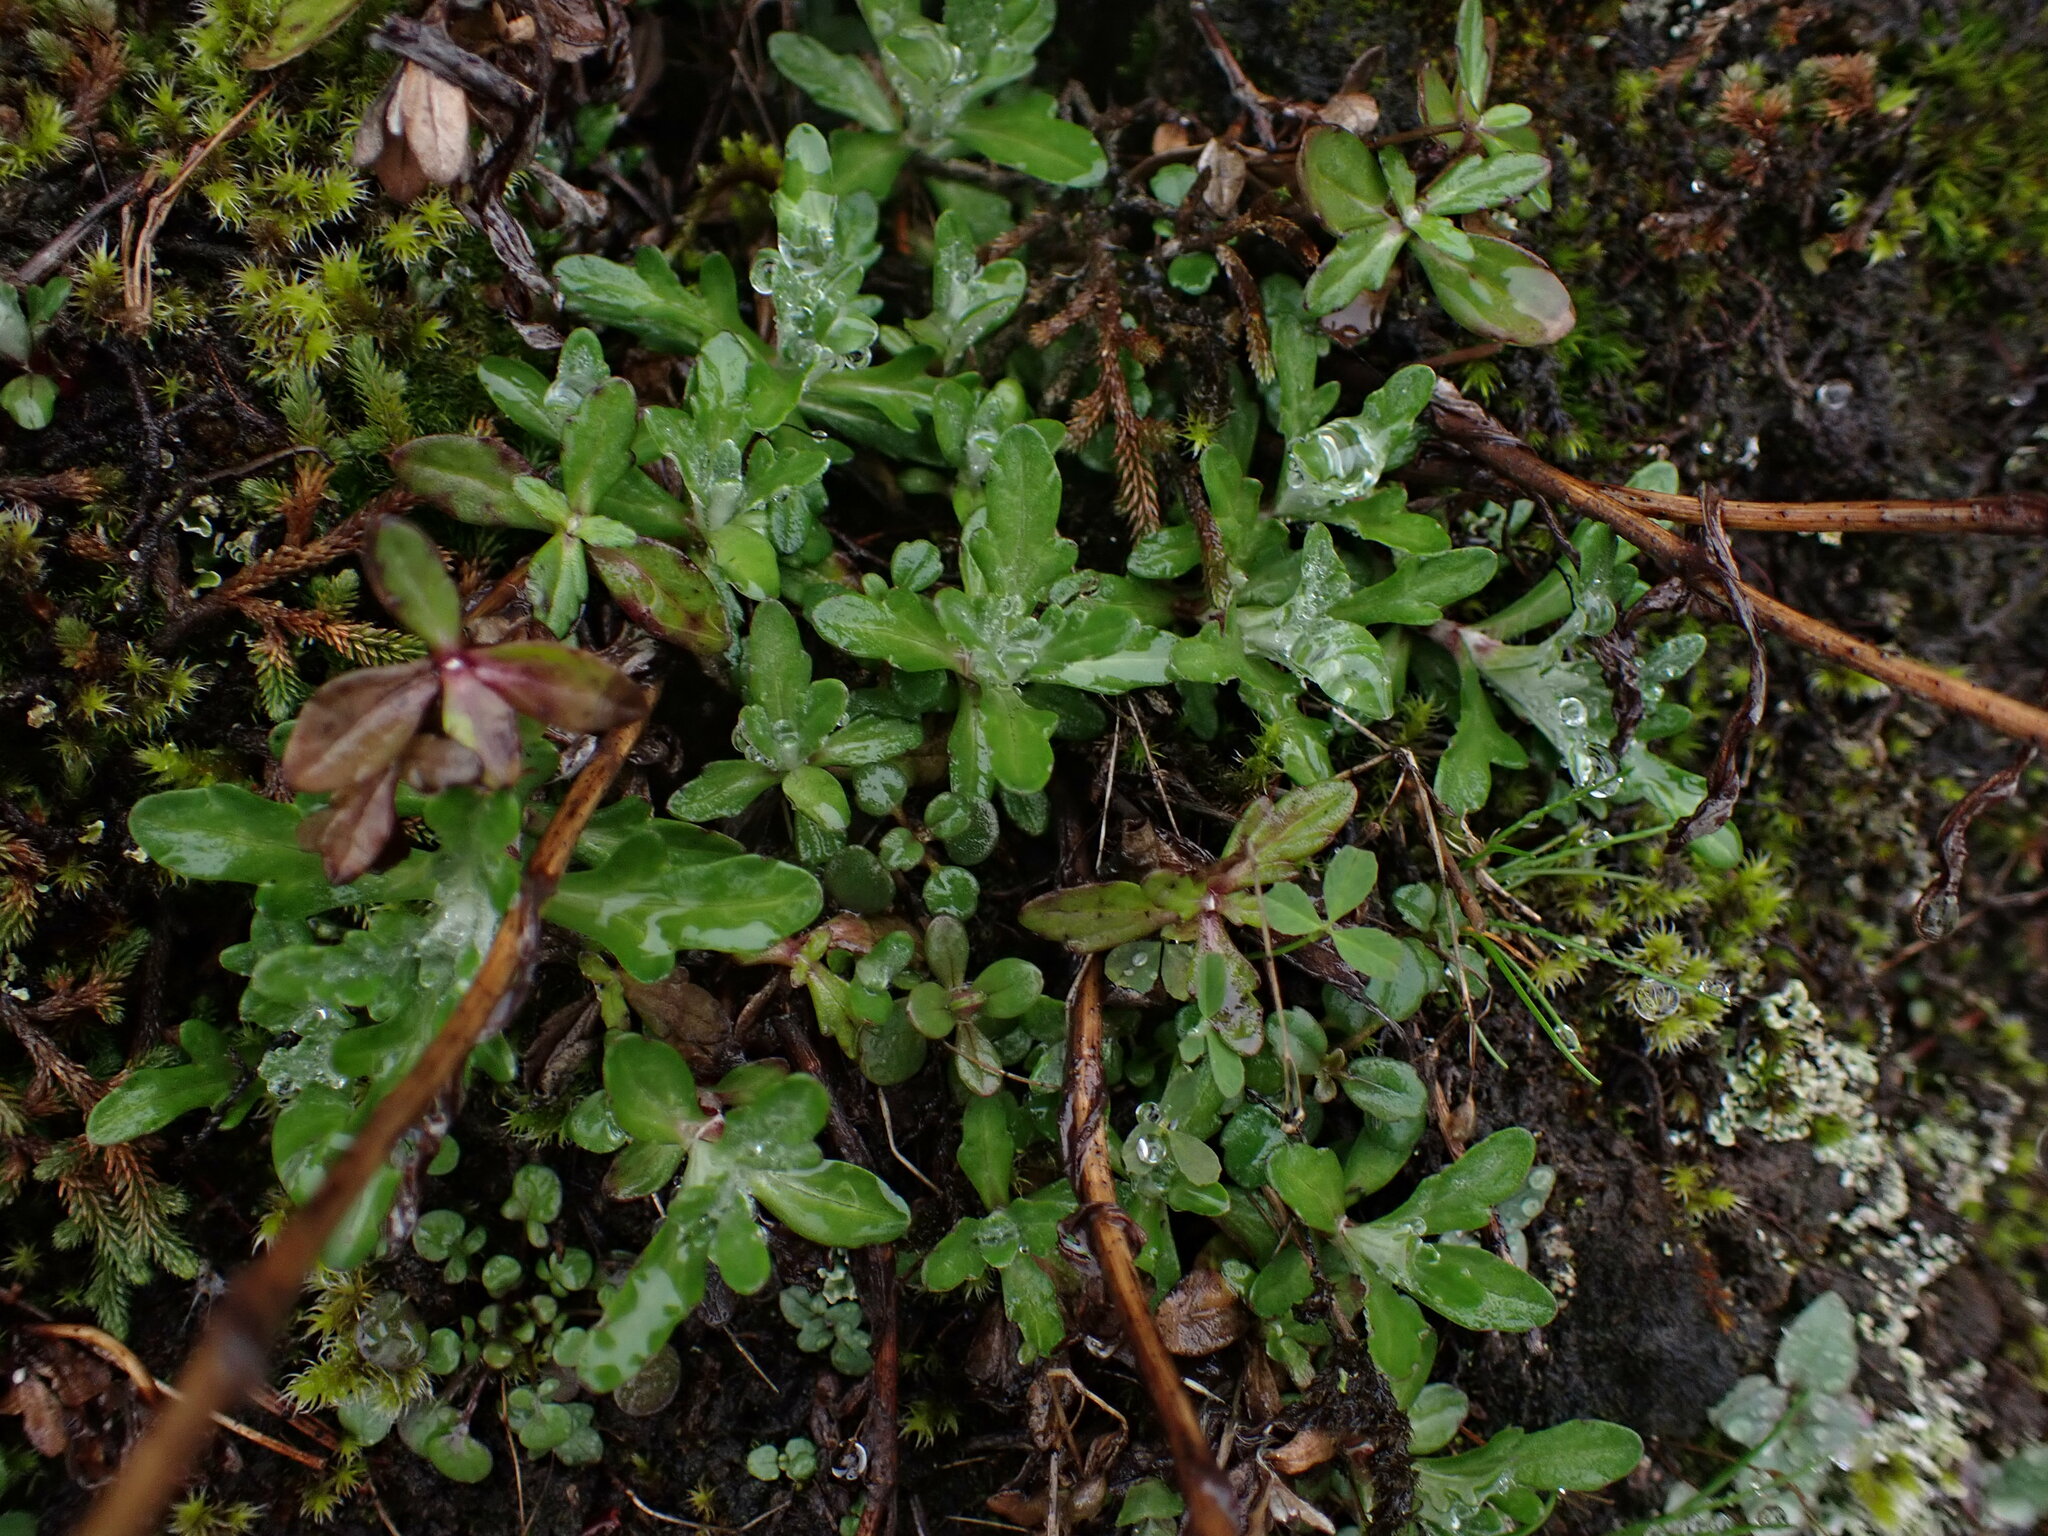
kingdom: Plantae
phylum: Tracheophyta
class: Magnoliopsida
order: Asterales
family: Asteraceae
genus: Eriophyllum
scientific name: Eriophyllum lanatum
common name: Common woolly-sunflower
